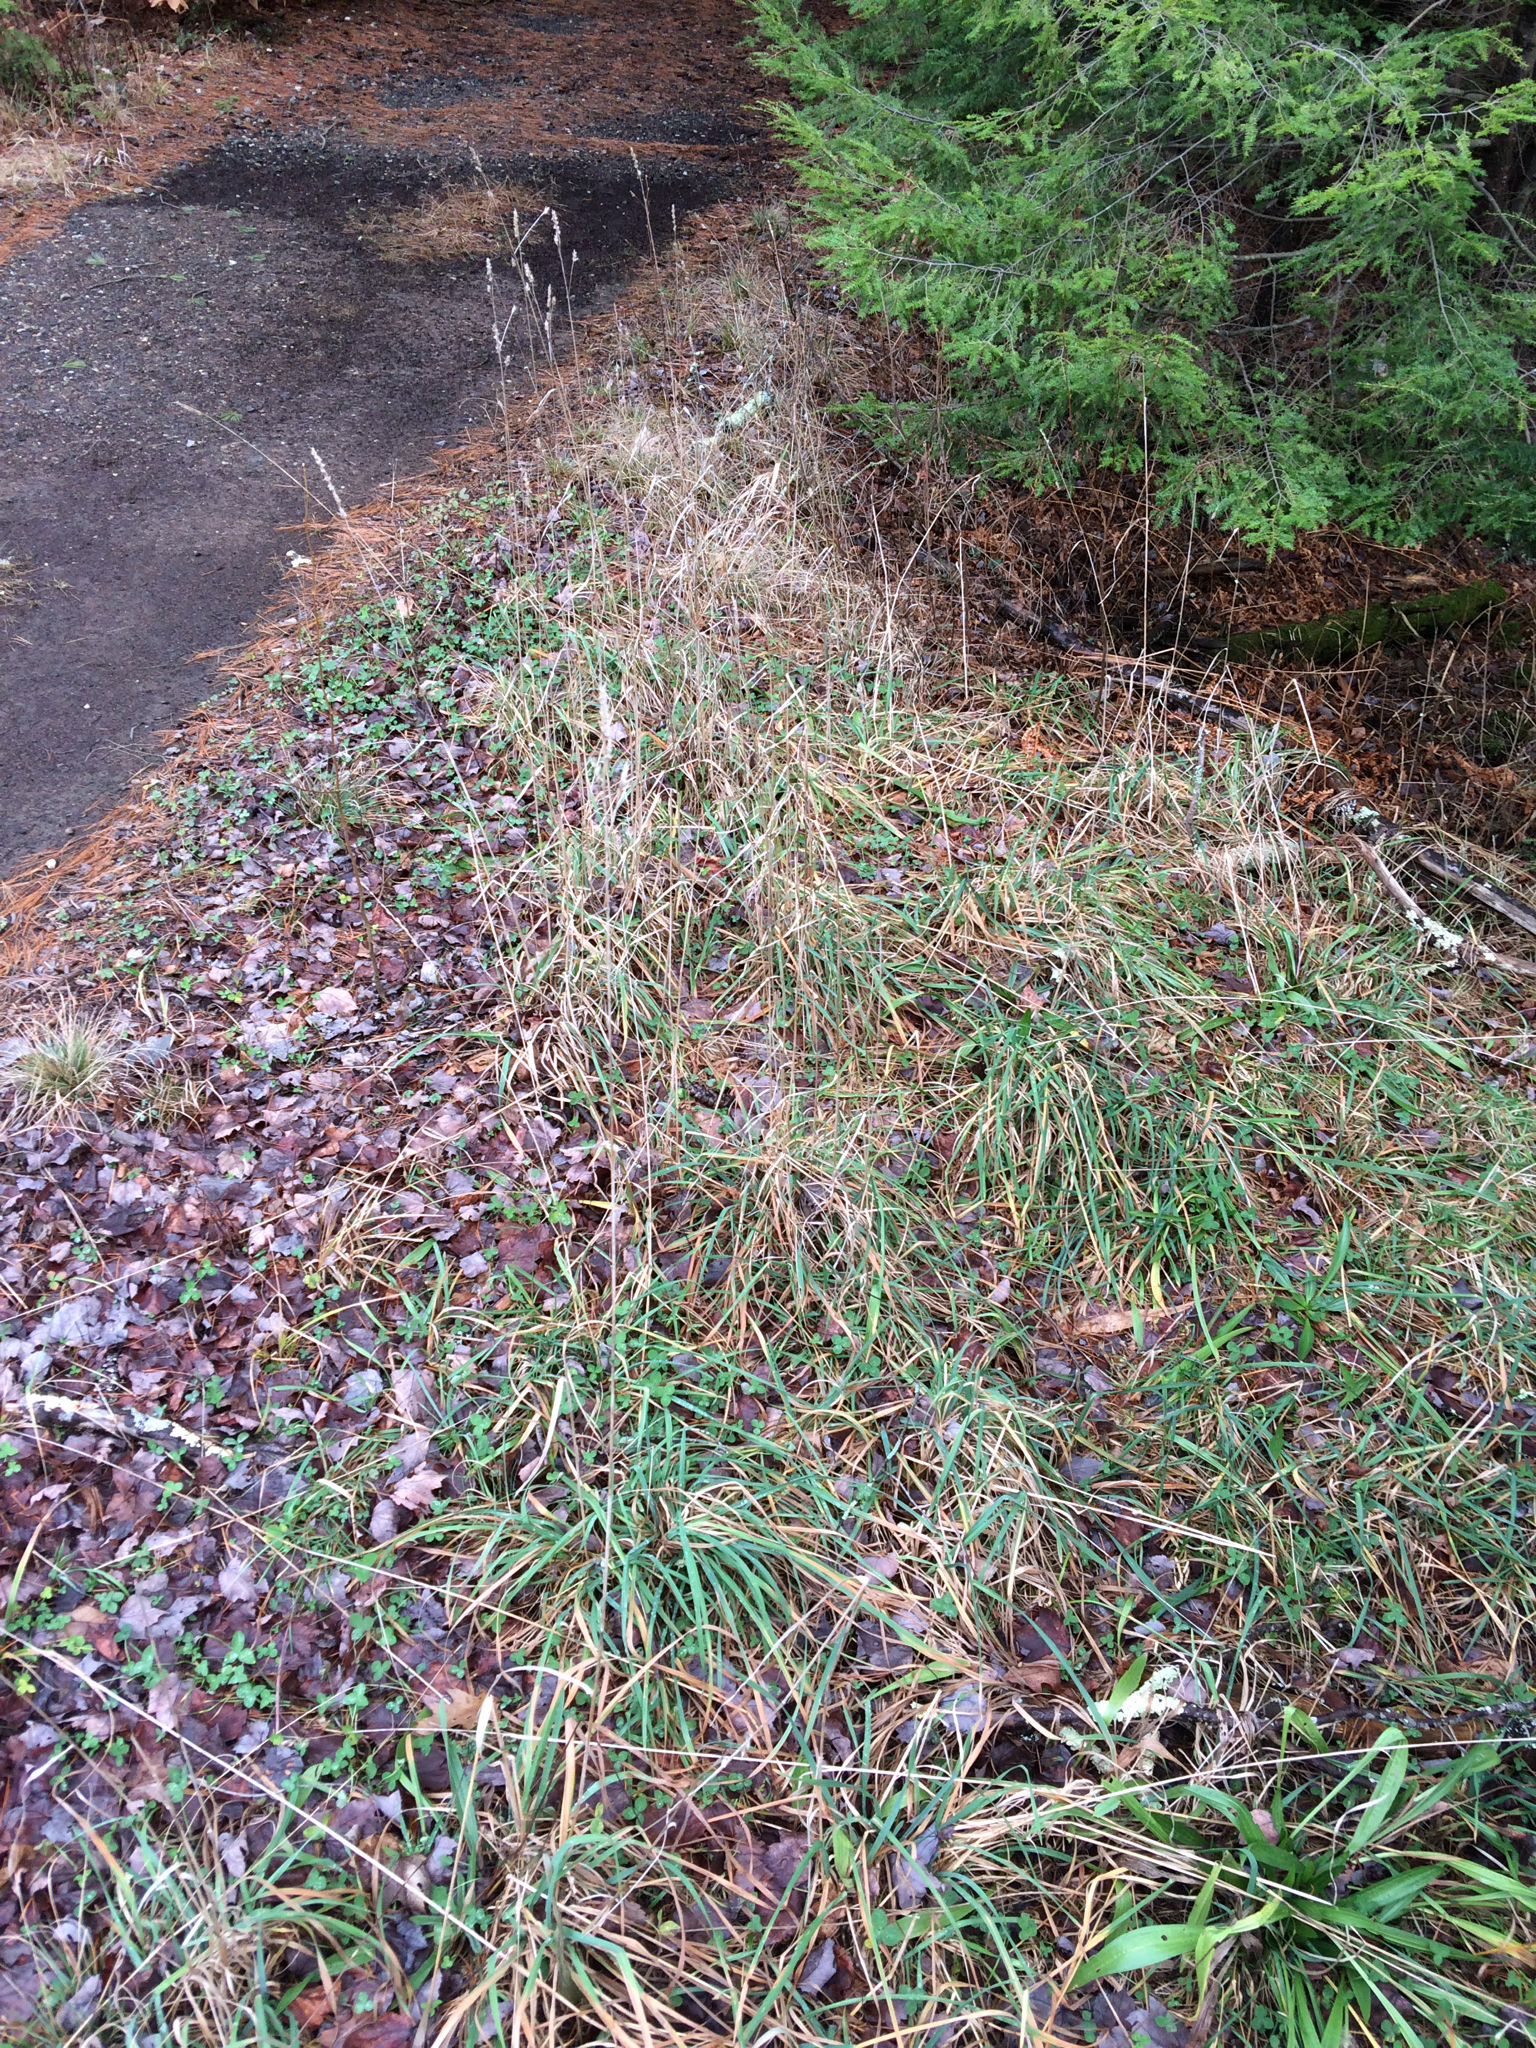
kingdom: Plantae
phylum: Tracheophyta
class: Liliopsida
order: Poales
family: Poaceae
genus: Dactylis
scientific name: Dactylis glomerata
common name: Orchardgrass
